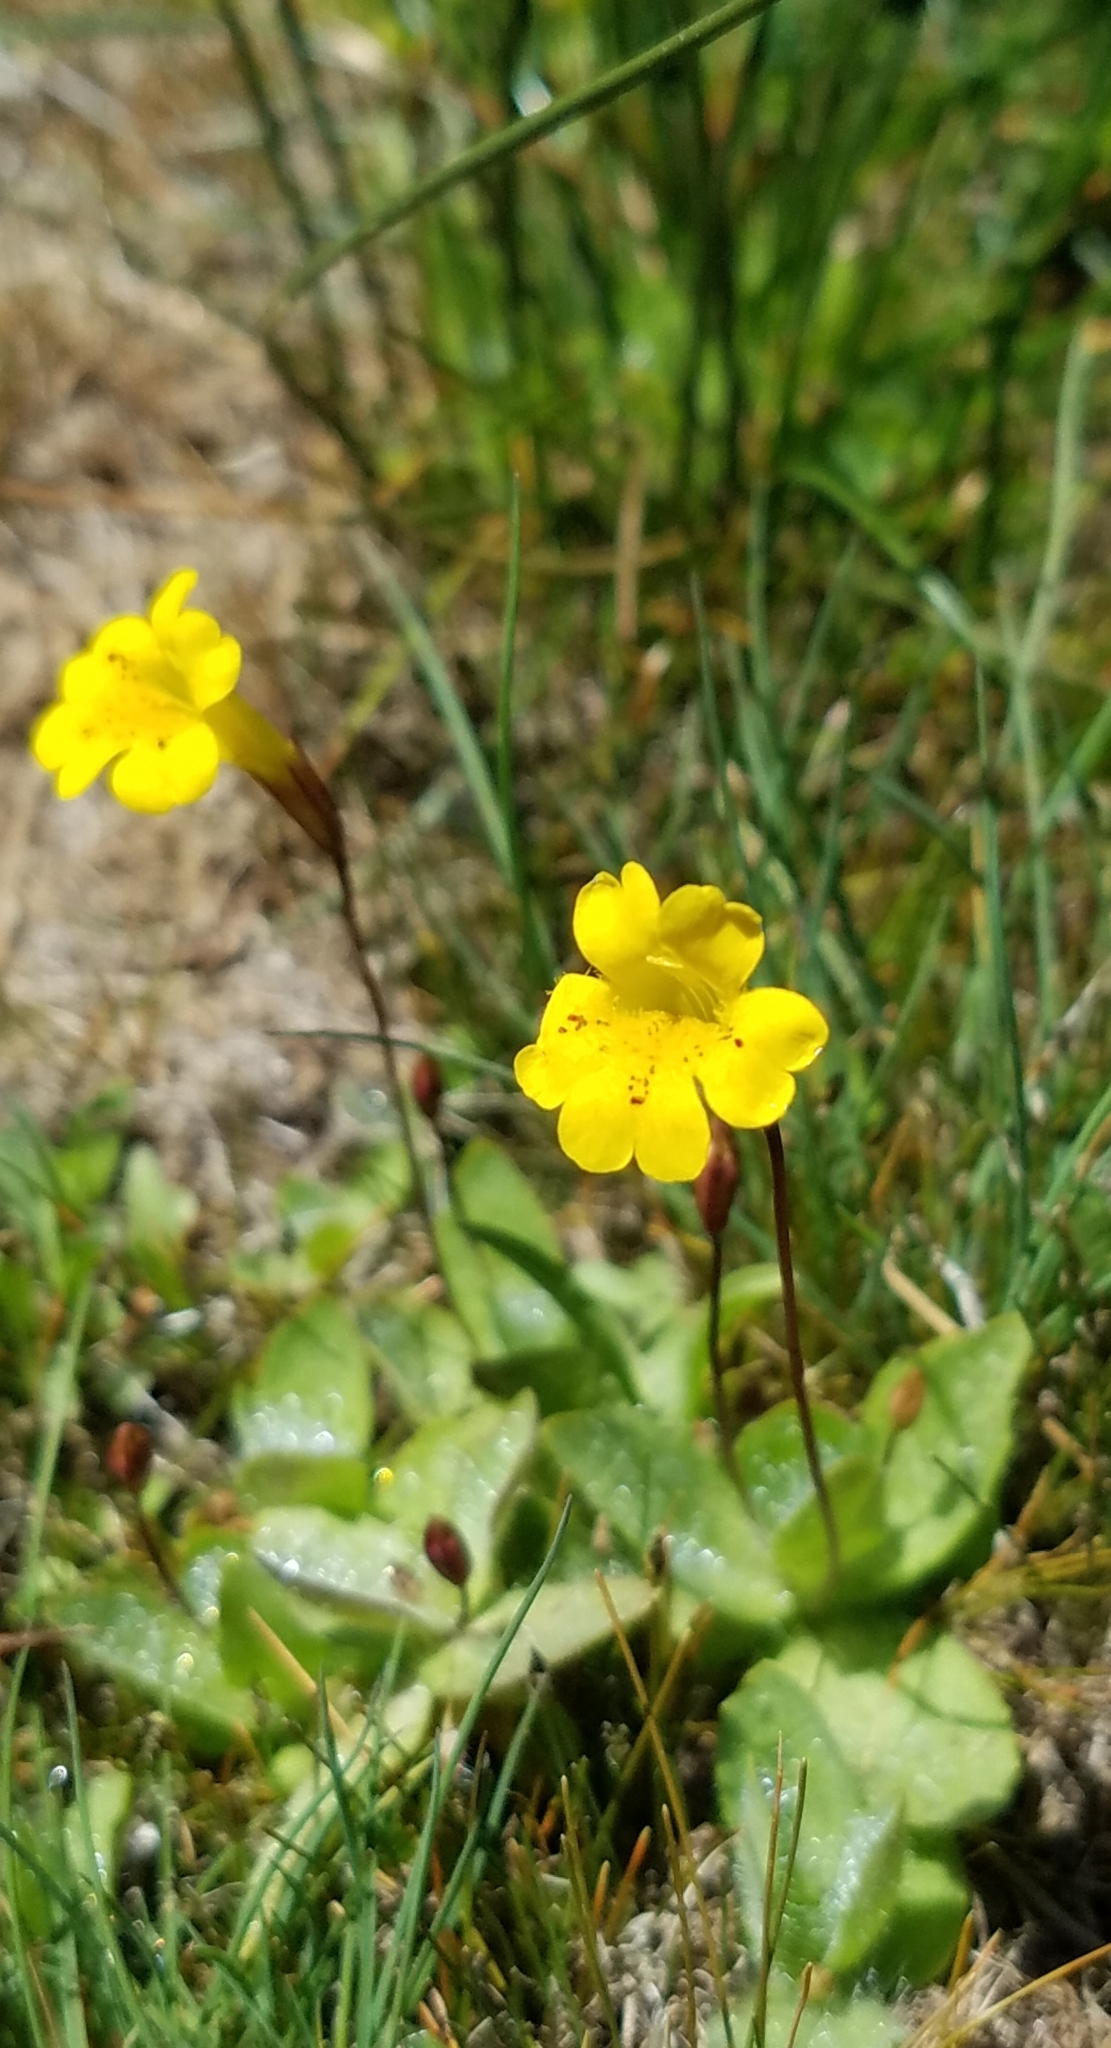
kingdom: Plantae
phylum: Tracheophyta
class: Magnoliopsida
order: Lamiales
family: Phrymaceae
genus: Erythranthe
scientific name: Erythranthe primuloides
